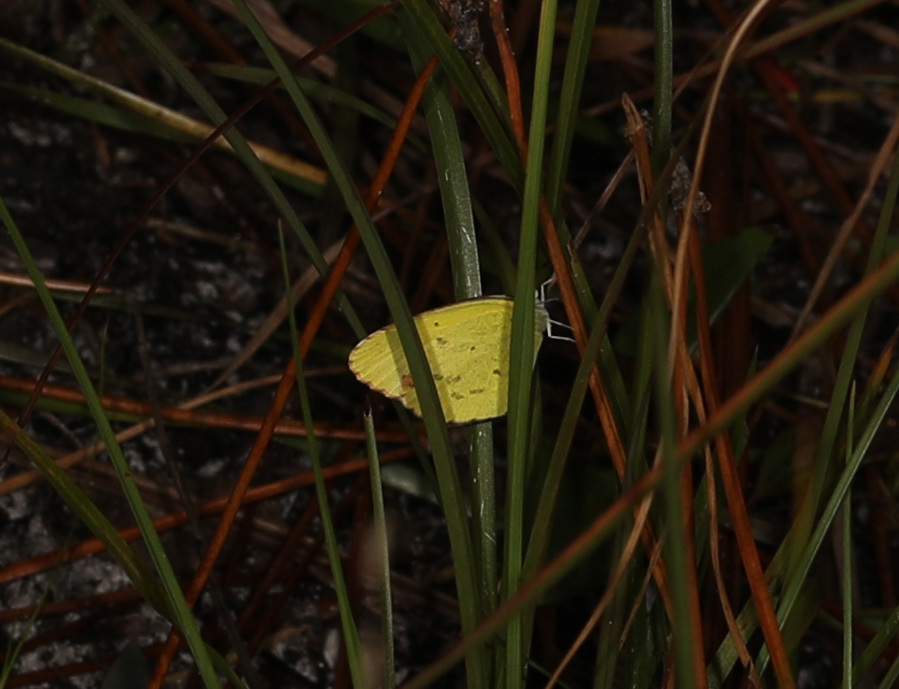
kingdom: Animalia
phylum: Arthropoda
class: Insecta
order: Lepidoptera
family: Pieridae
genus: Pyrisitia
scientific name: Pyrisitia lisa
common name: Little yellow
